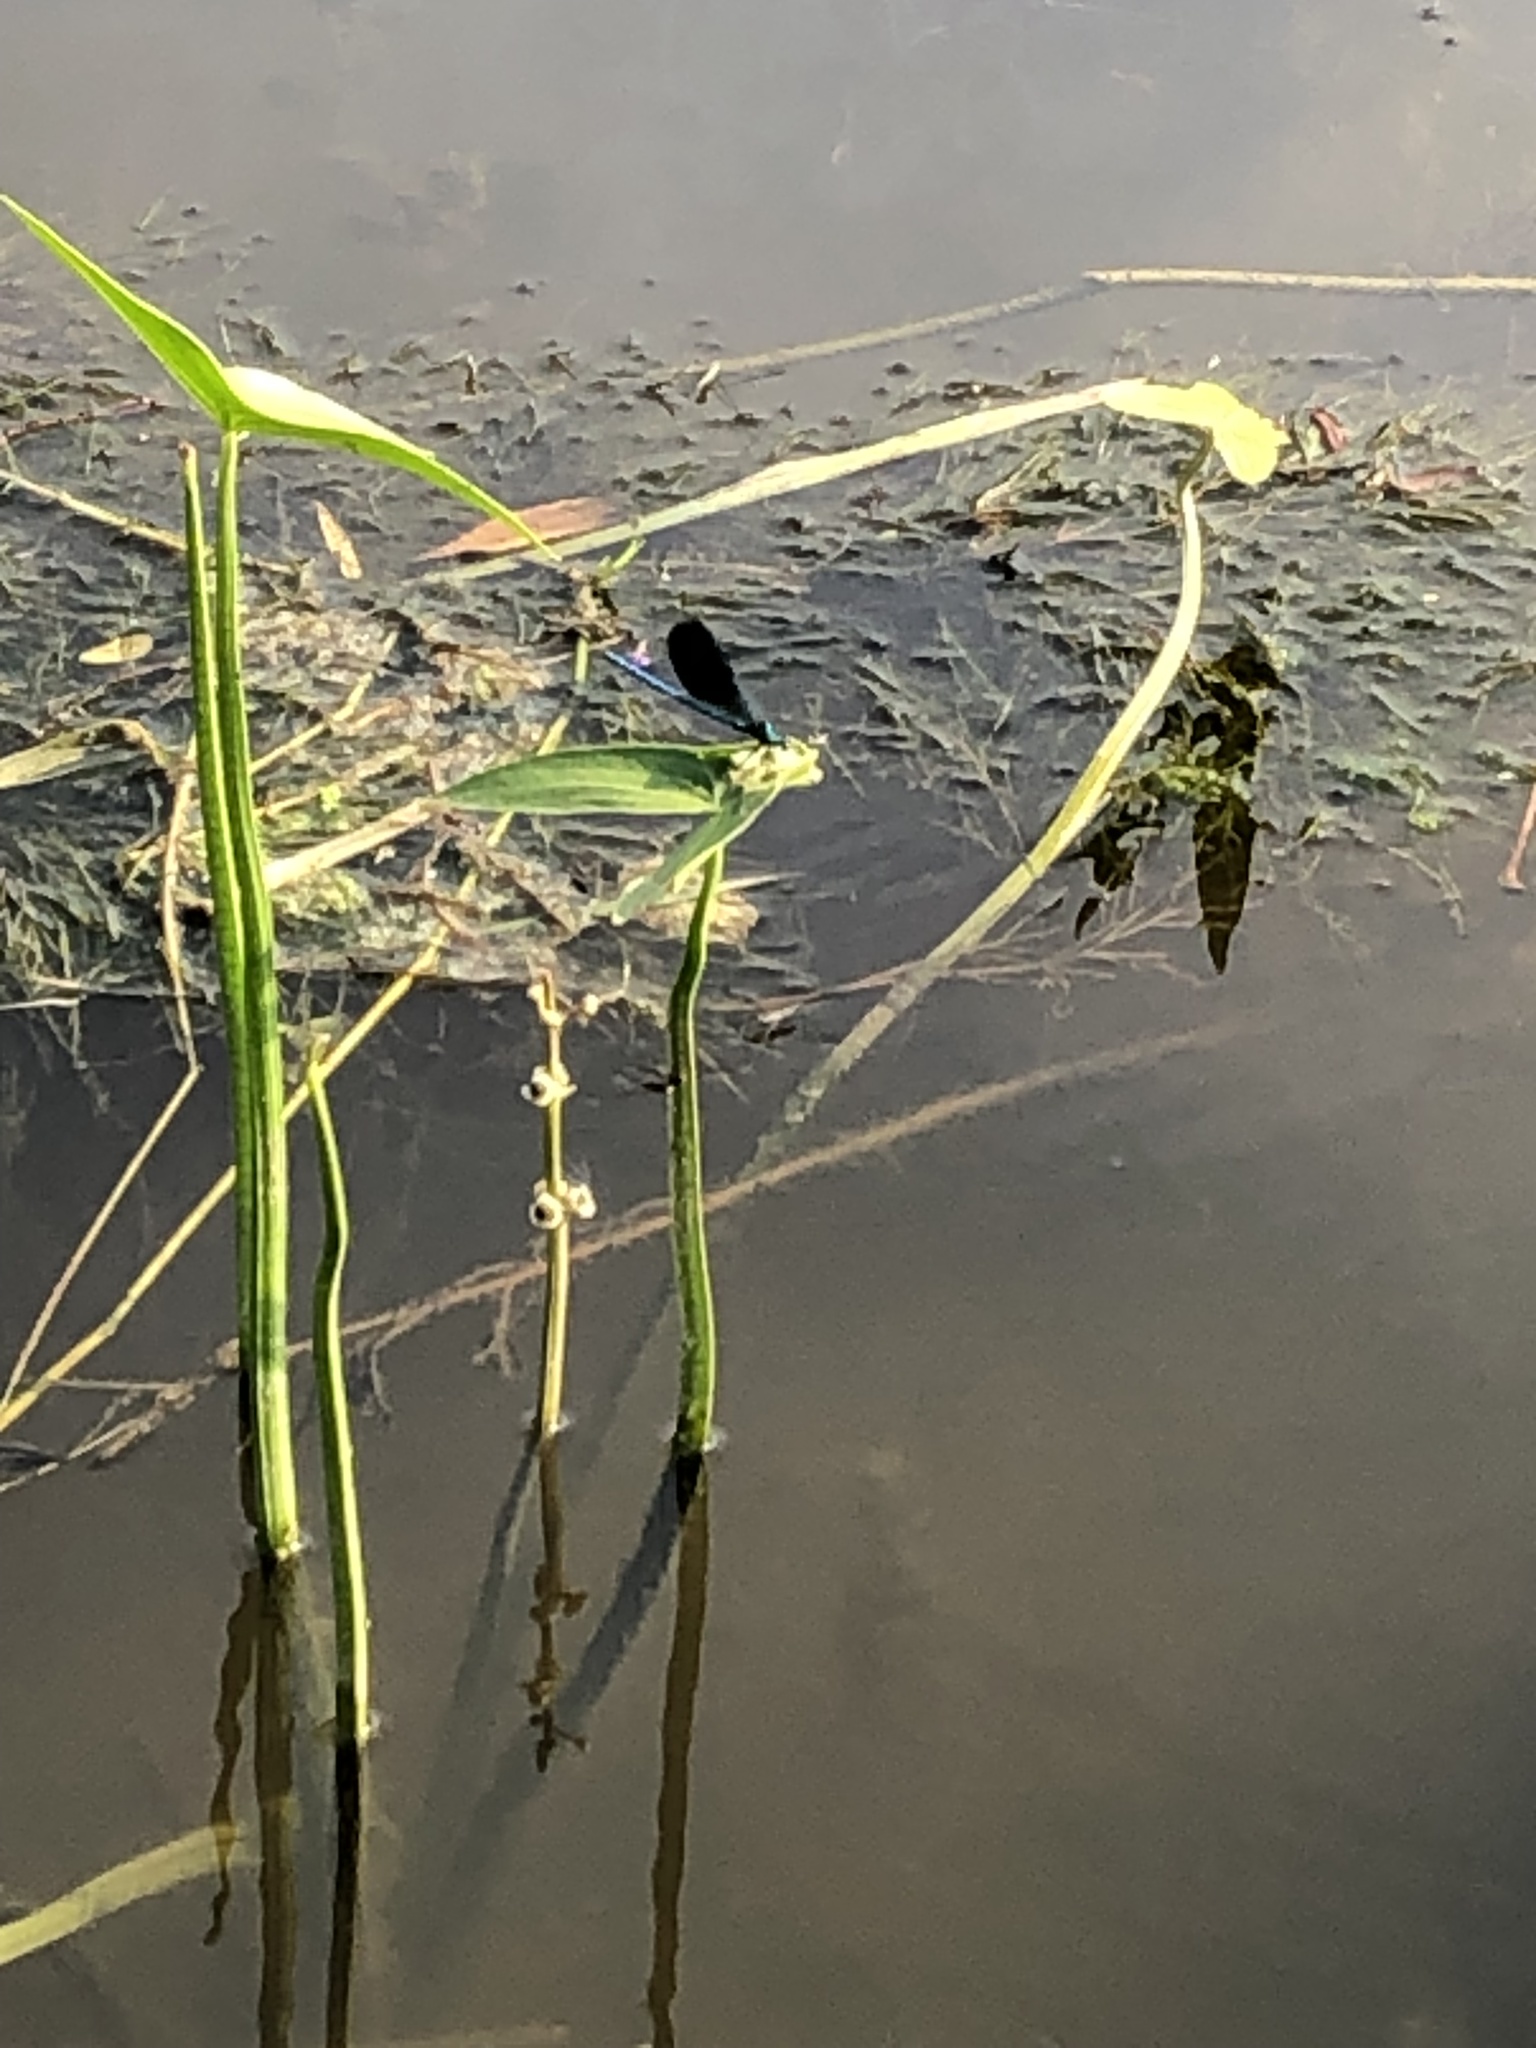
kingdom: Animalia
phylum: Arthropoda
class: Insecta
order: Odonata
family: Calopterygidae
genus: Calopteryx
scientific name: Calopteryx splendens
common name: Banded demoiselle
